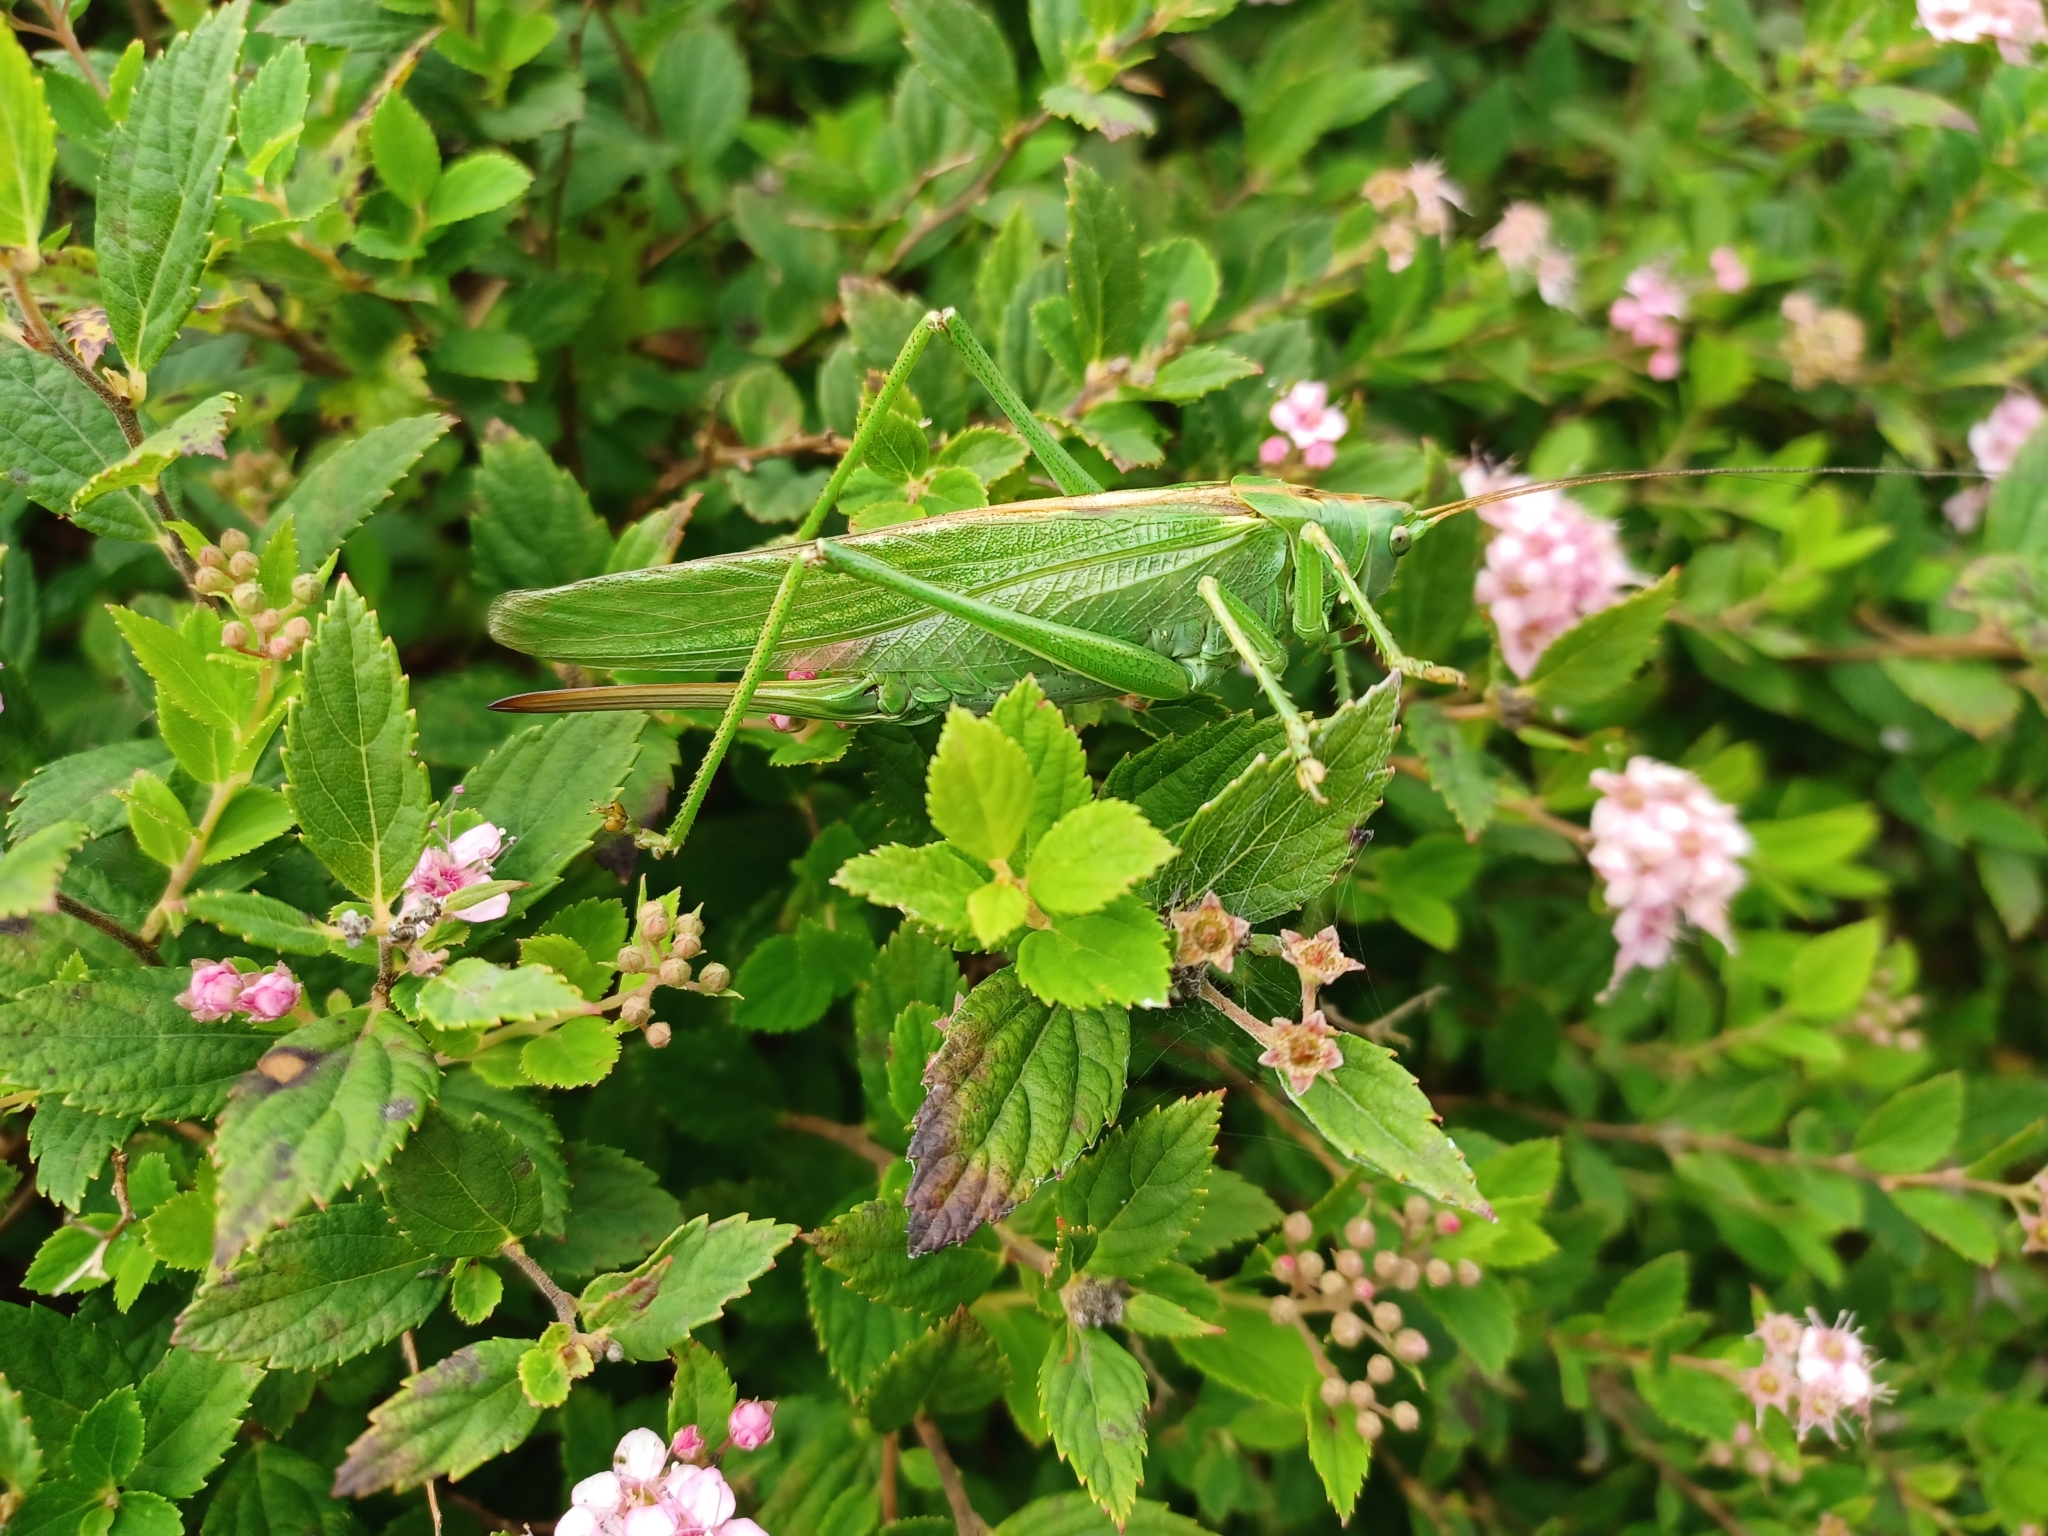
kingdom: Animalia
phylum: Arthropoda
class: Insecta
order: Orthoptera
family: Tettigoniidae
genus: Tettigonia
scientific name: Tettigonia viridissima
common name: Great green bush-cricket
